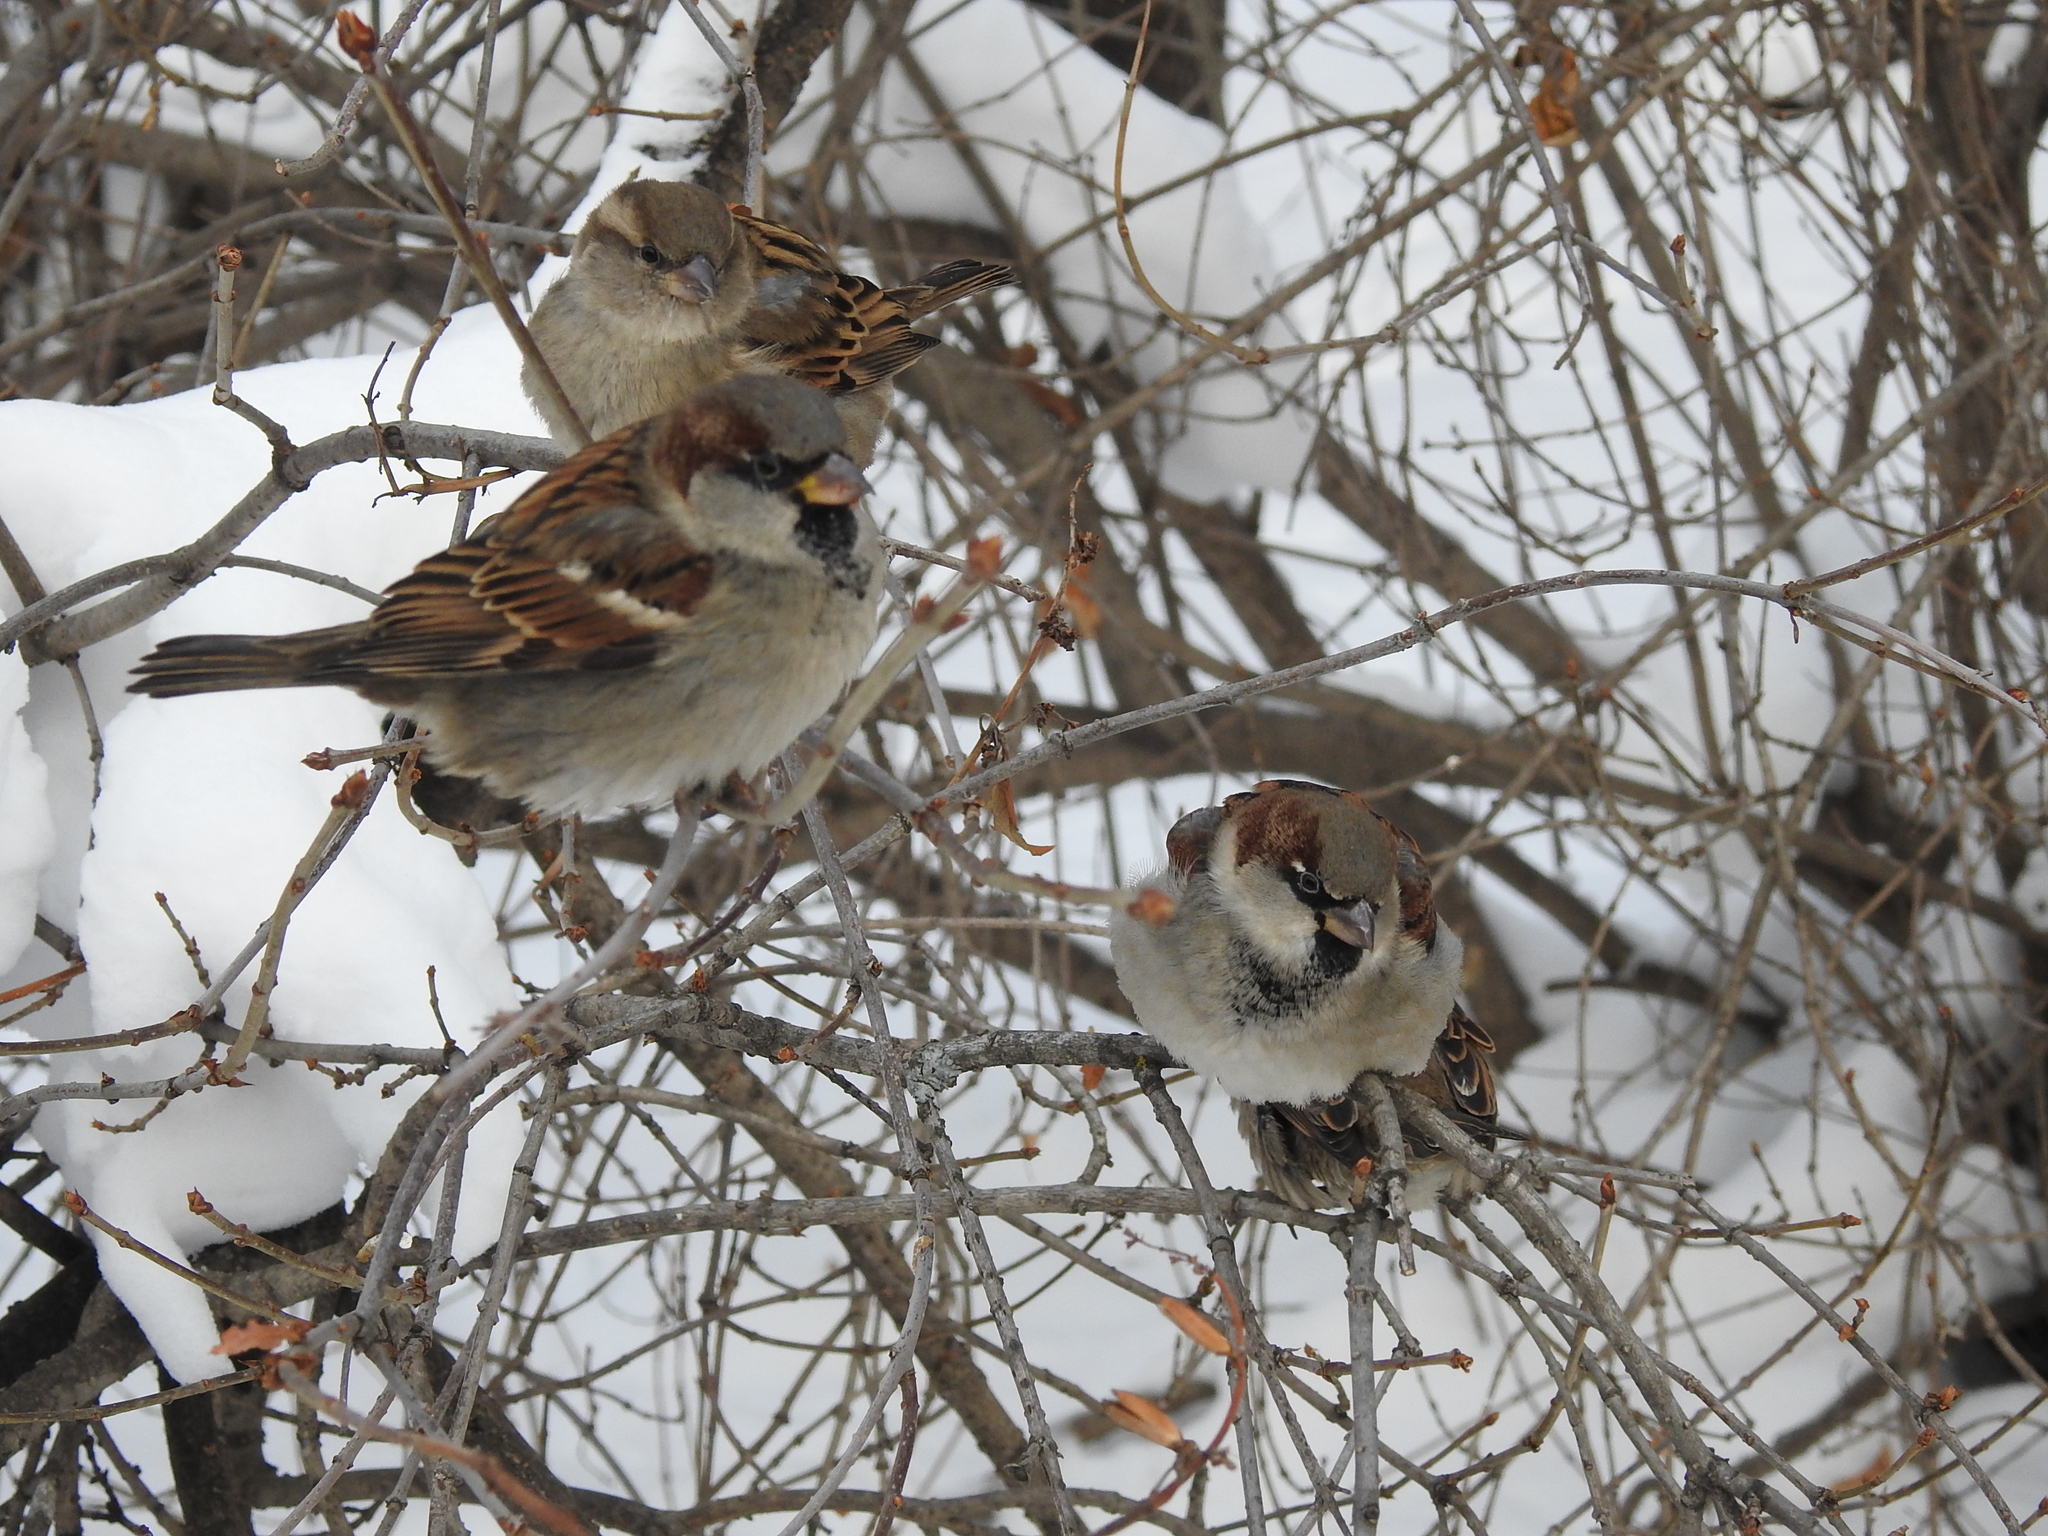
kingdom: Animalia
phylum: Chordata
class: Aves
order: Passeriformes
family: Passeridae
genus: Passer
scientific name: Passer domesticus
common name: House sparrow
